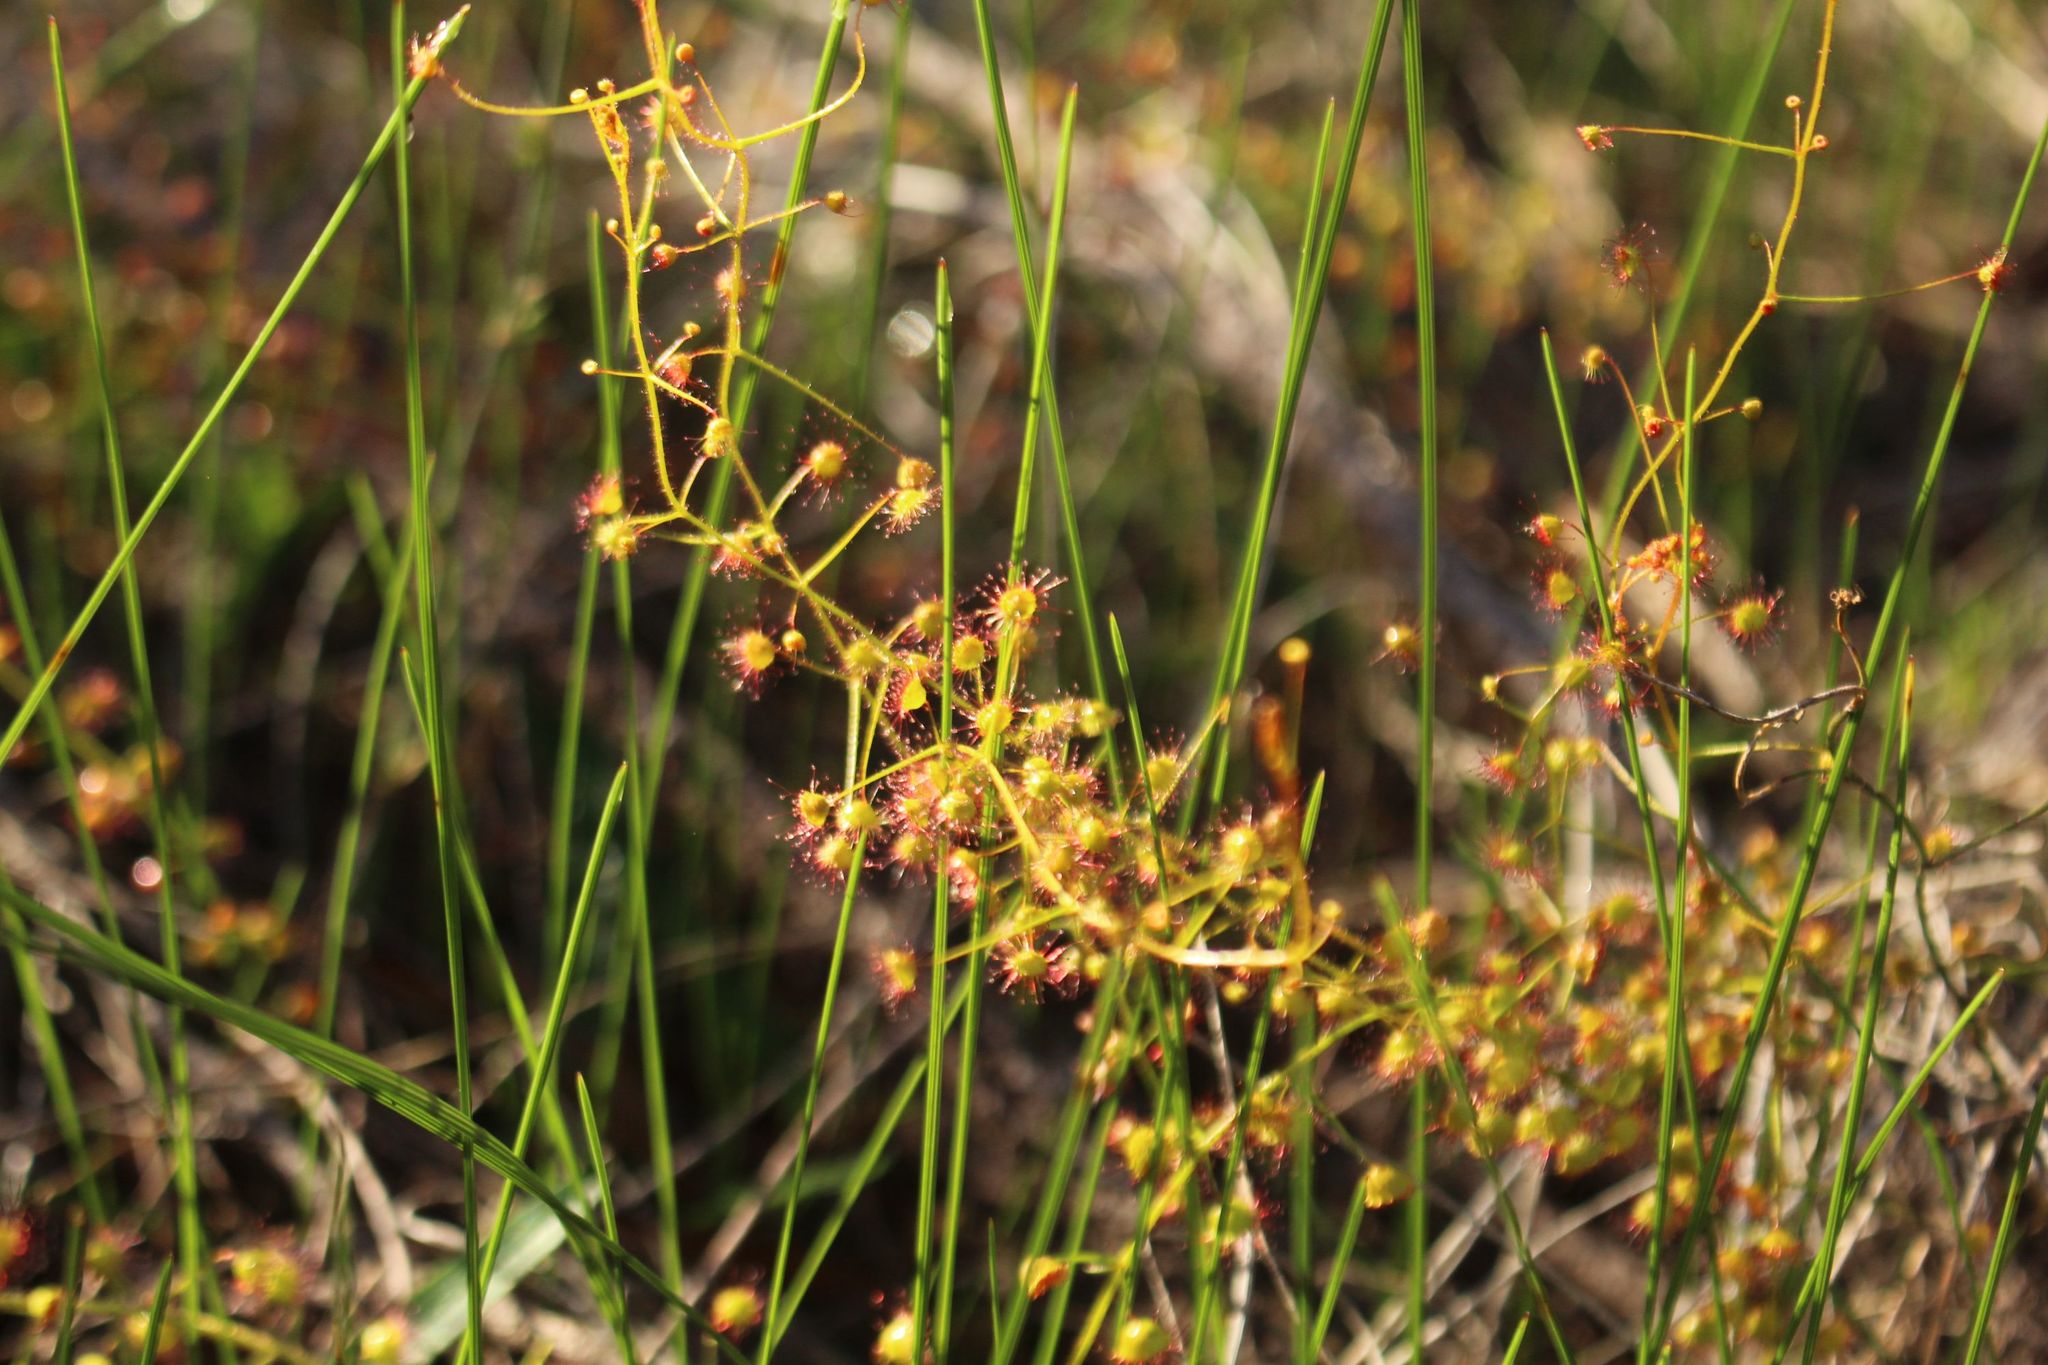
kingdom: Plantae
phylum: Tracheophyta
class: Magnoliopsida
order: Caryophyllales
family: Droseraceae
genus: Drosera
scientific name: Drosera macrantha
